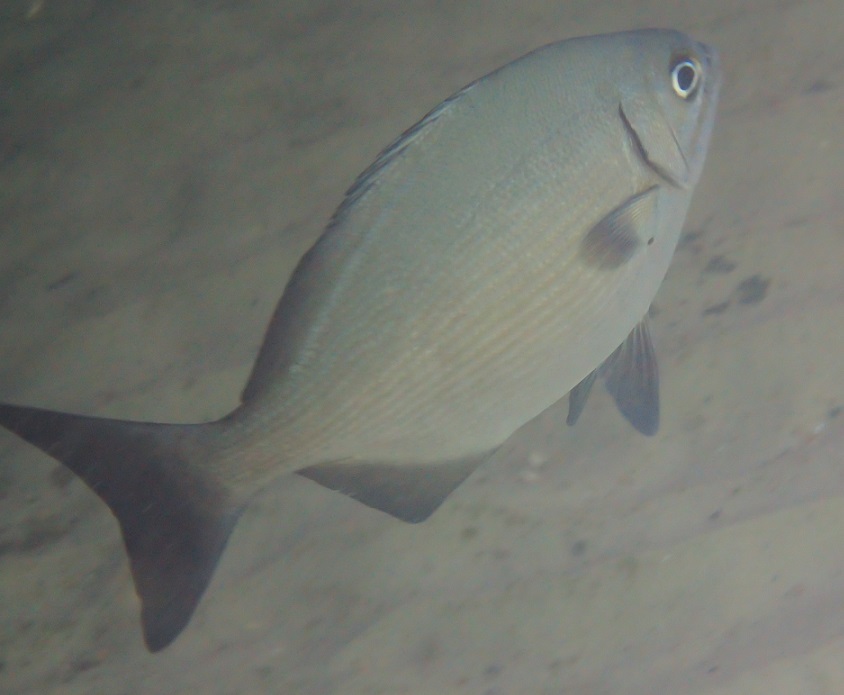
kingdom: Animalia
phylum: Chordata
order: Perciformes
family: Kyphosidae
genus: Kyphosus
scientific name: Kyphosus bigibbus
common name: Brown chub
